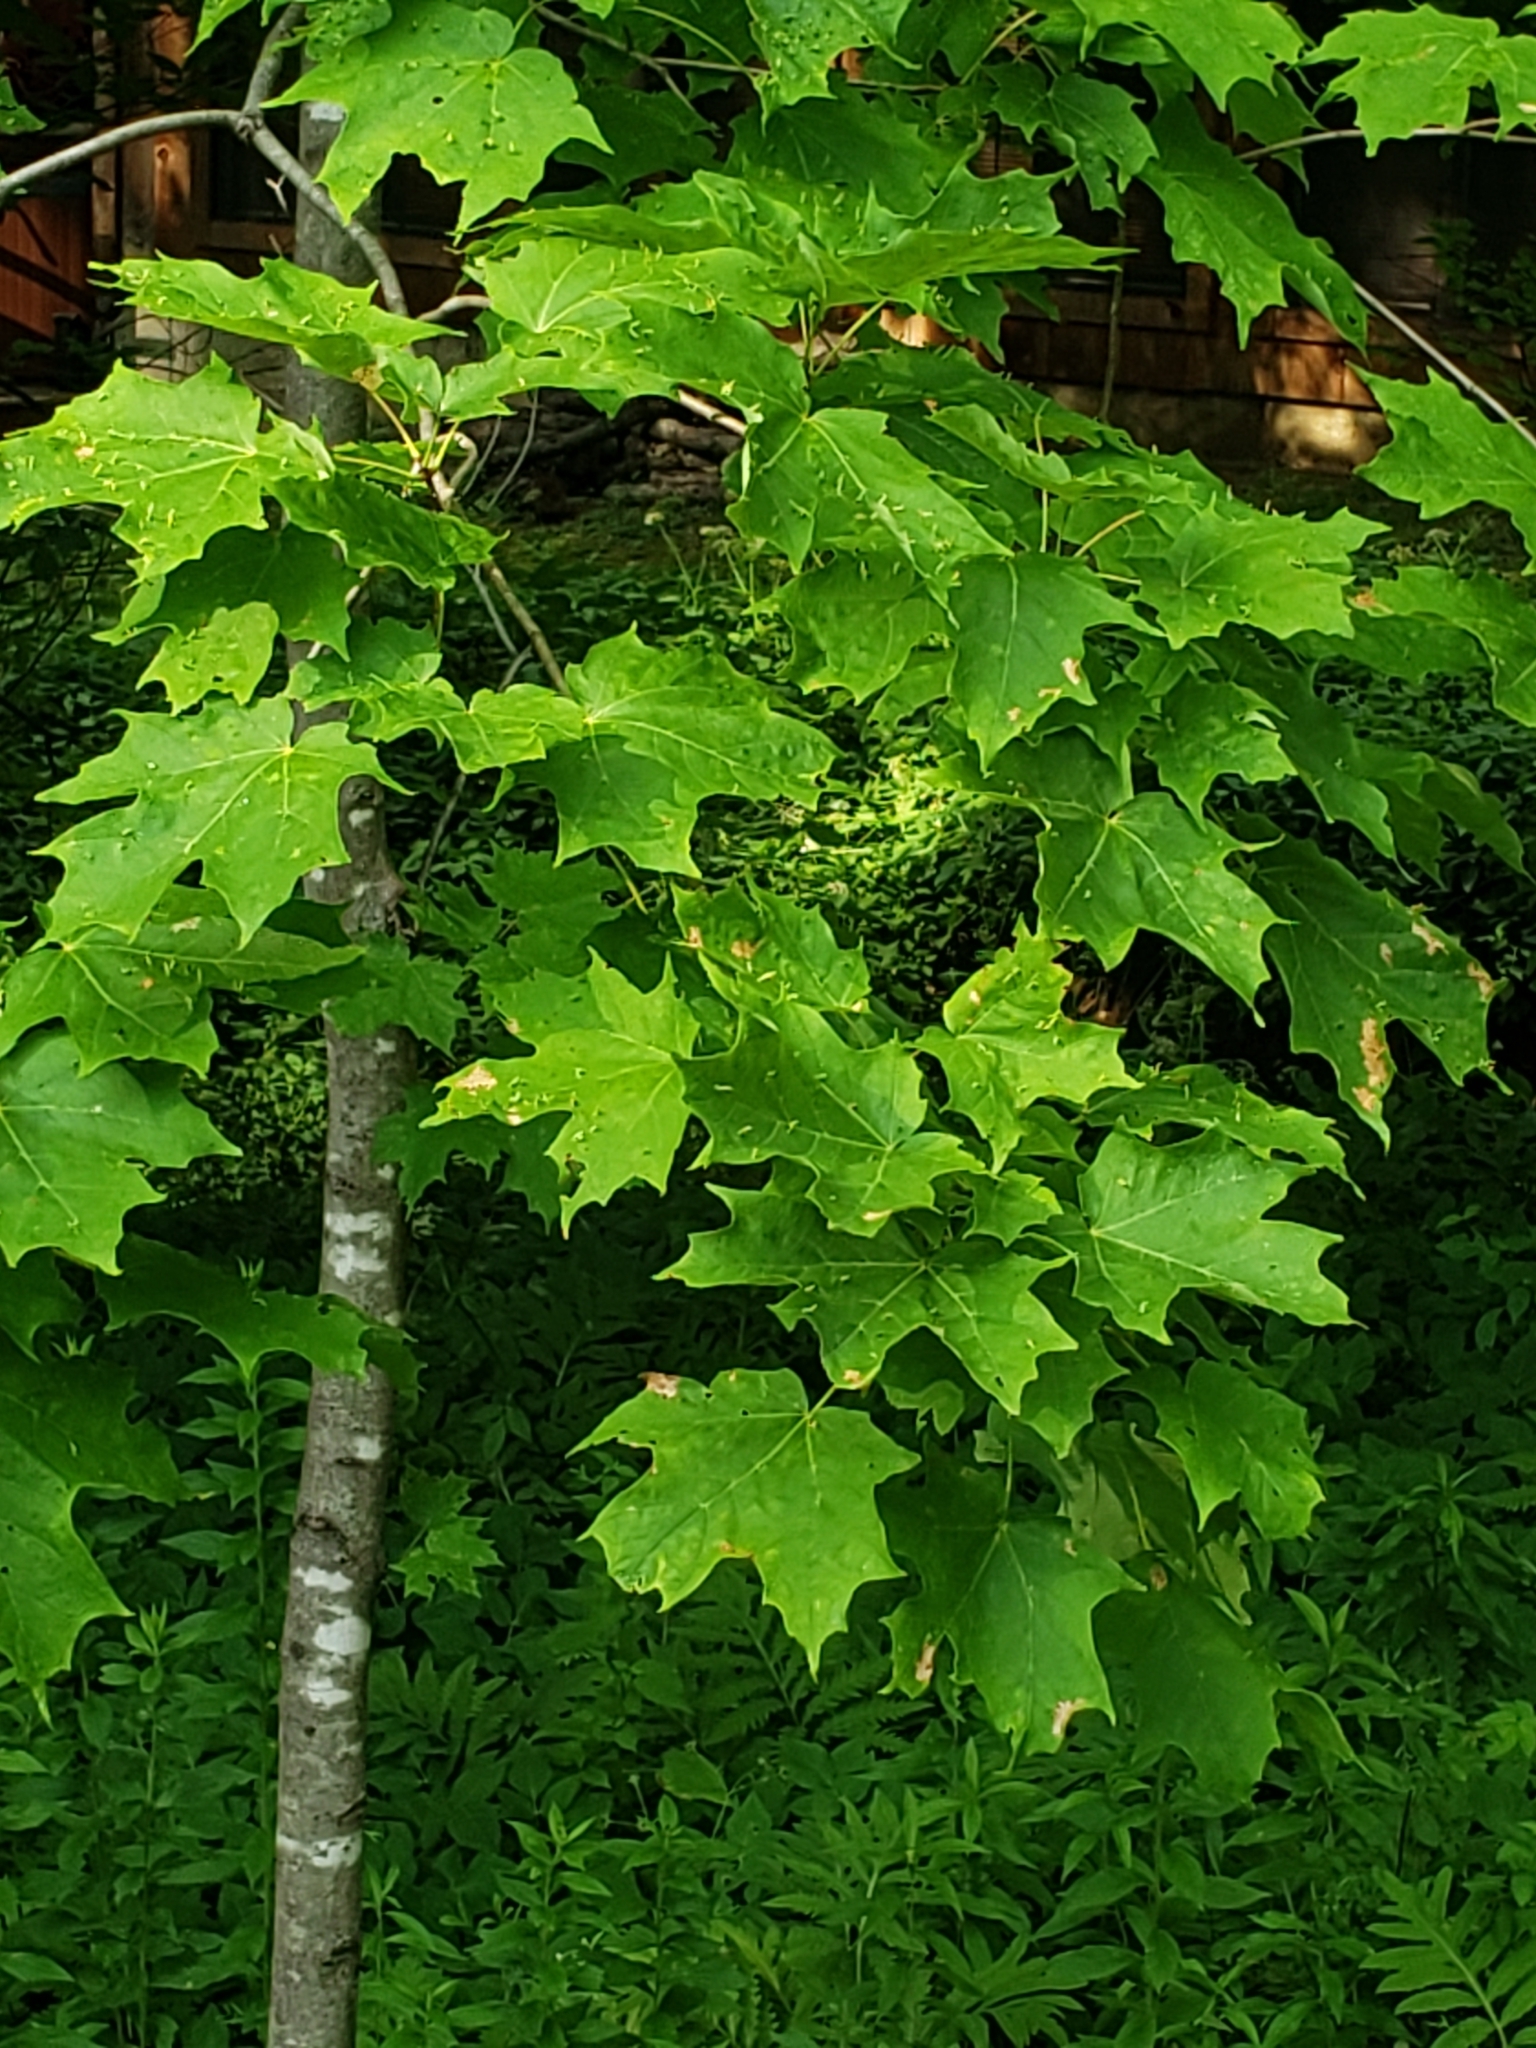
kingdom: Plantae
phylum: Tracheophyta
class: Magnoliopsida
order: Sapindales
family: Sapindaceae
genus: Acer
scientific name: Acer saccharum
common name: Sugar maple
